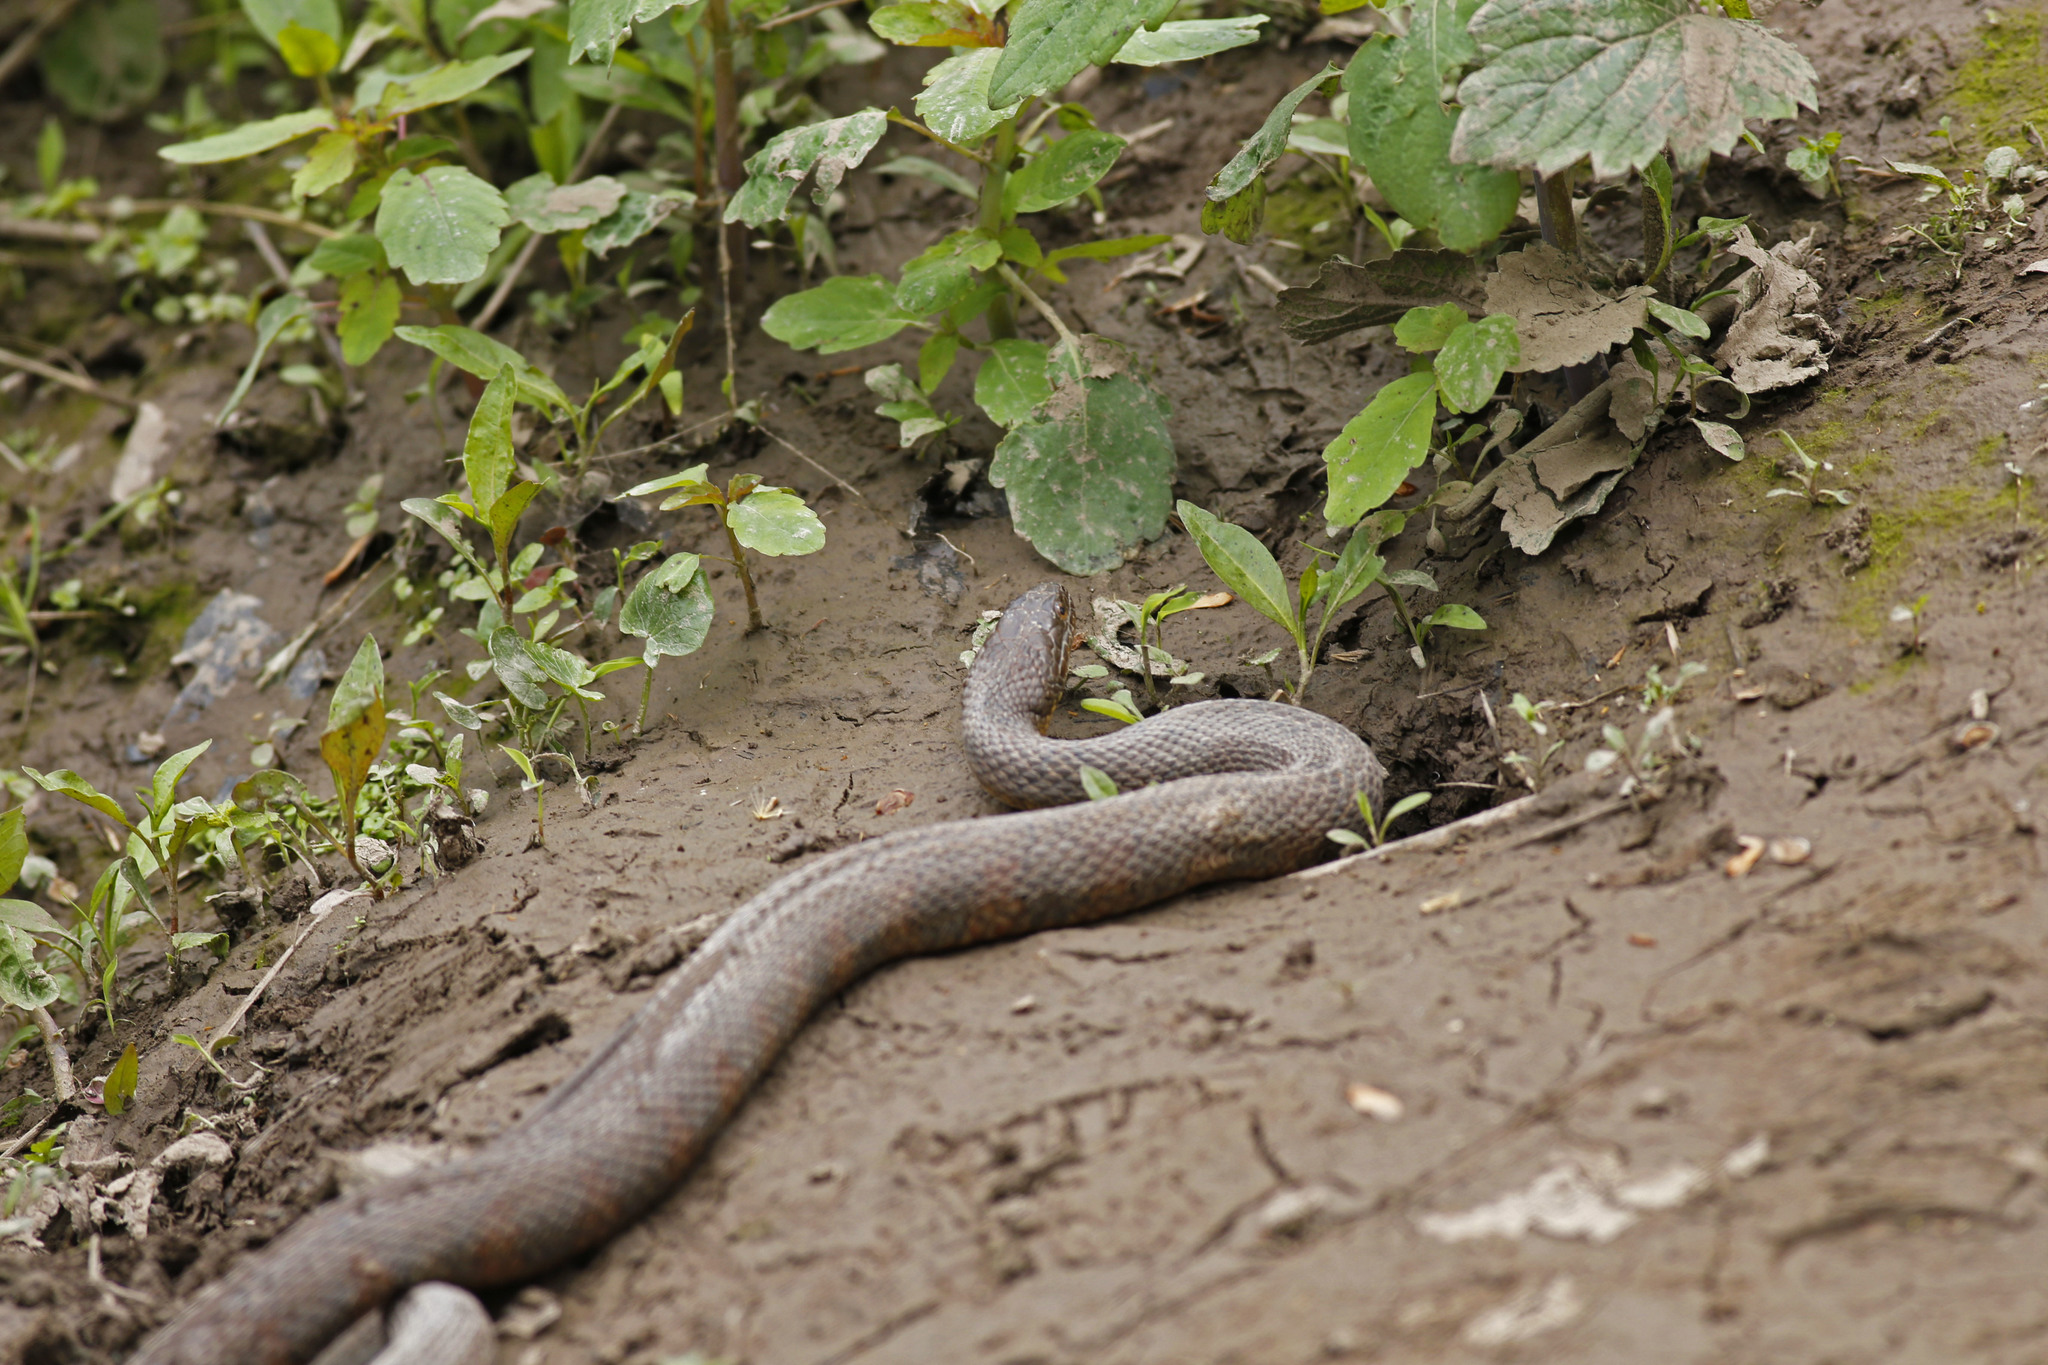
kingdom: Animalia
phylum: Chordata
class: Squamata
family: Colubridae
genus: Nerodia
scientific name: Nerodia sipedon
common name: Northern water snake
